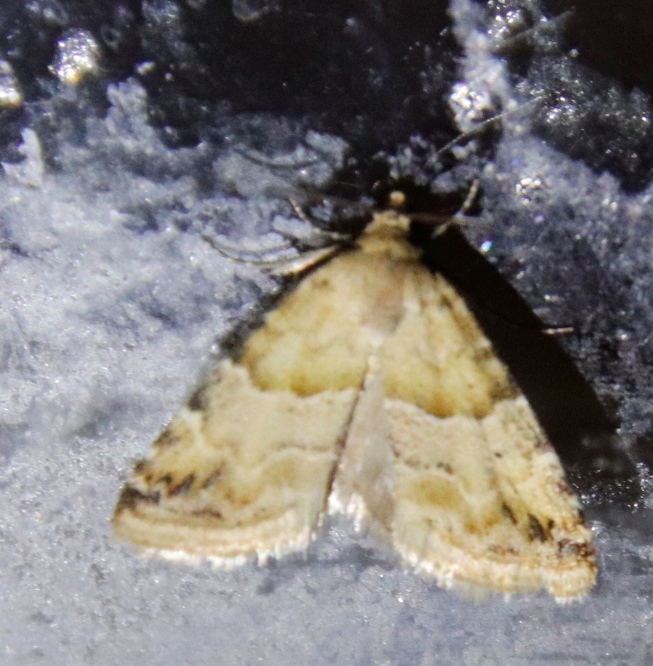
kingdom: Animalia
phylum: Arthropoda
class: Insecta
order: Lepidoptera
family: Noctuidae
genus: Eublemma
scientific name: Eublemma delicata
